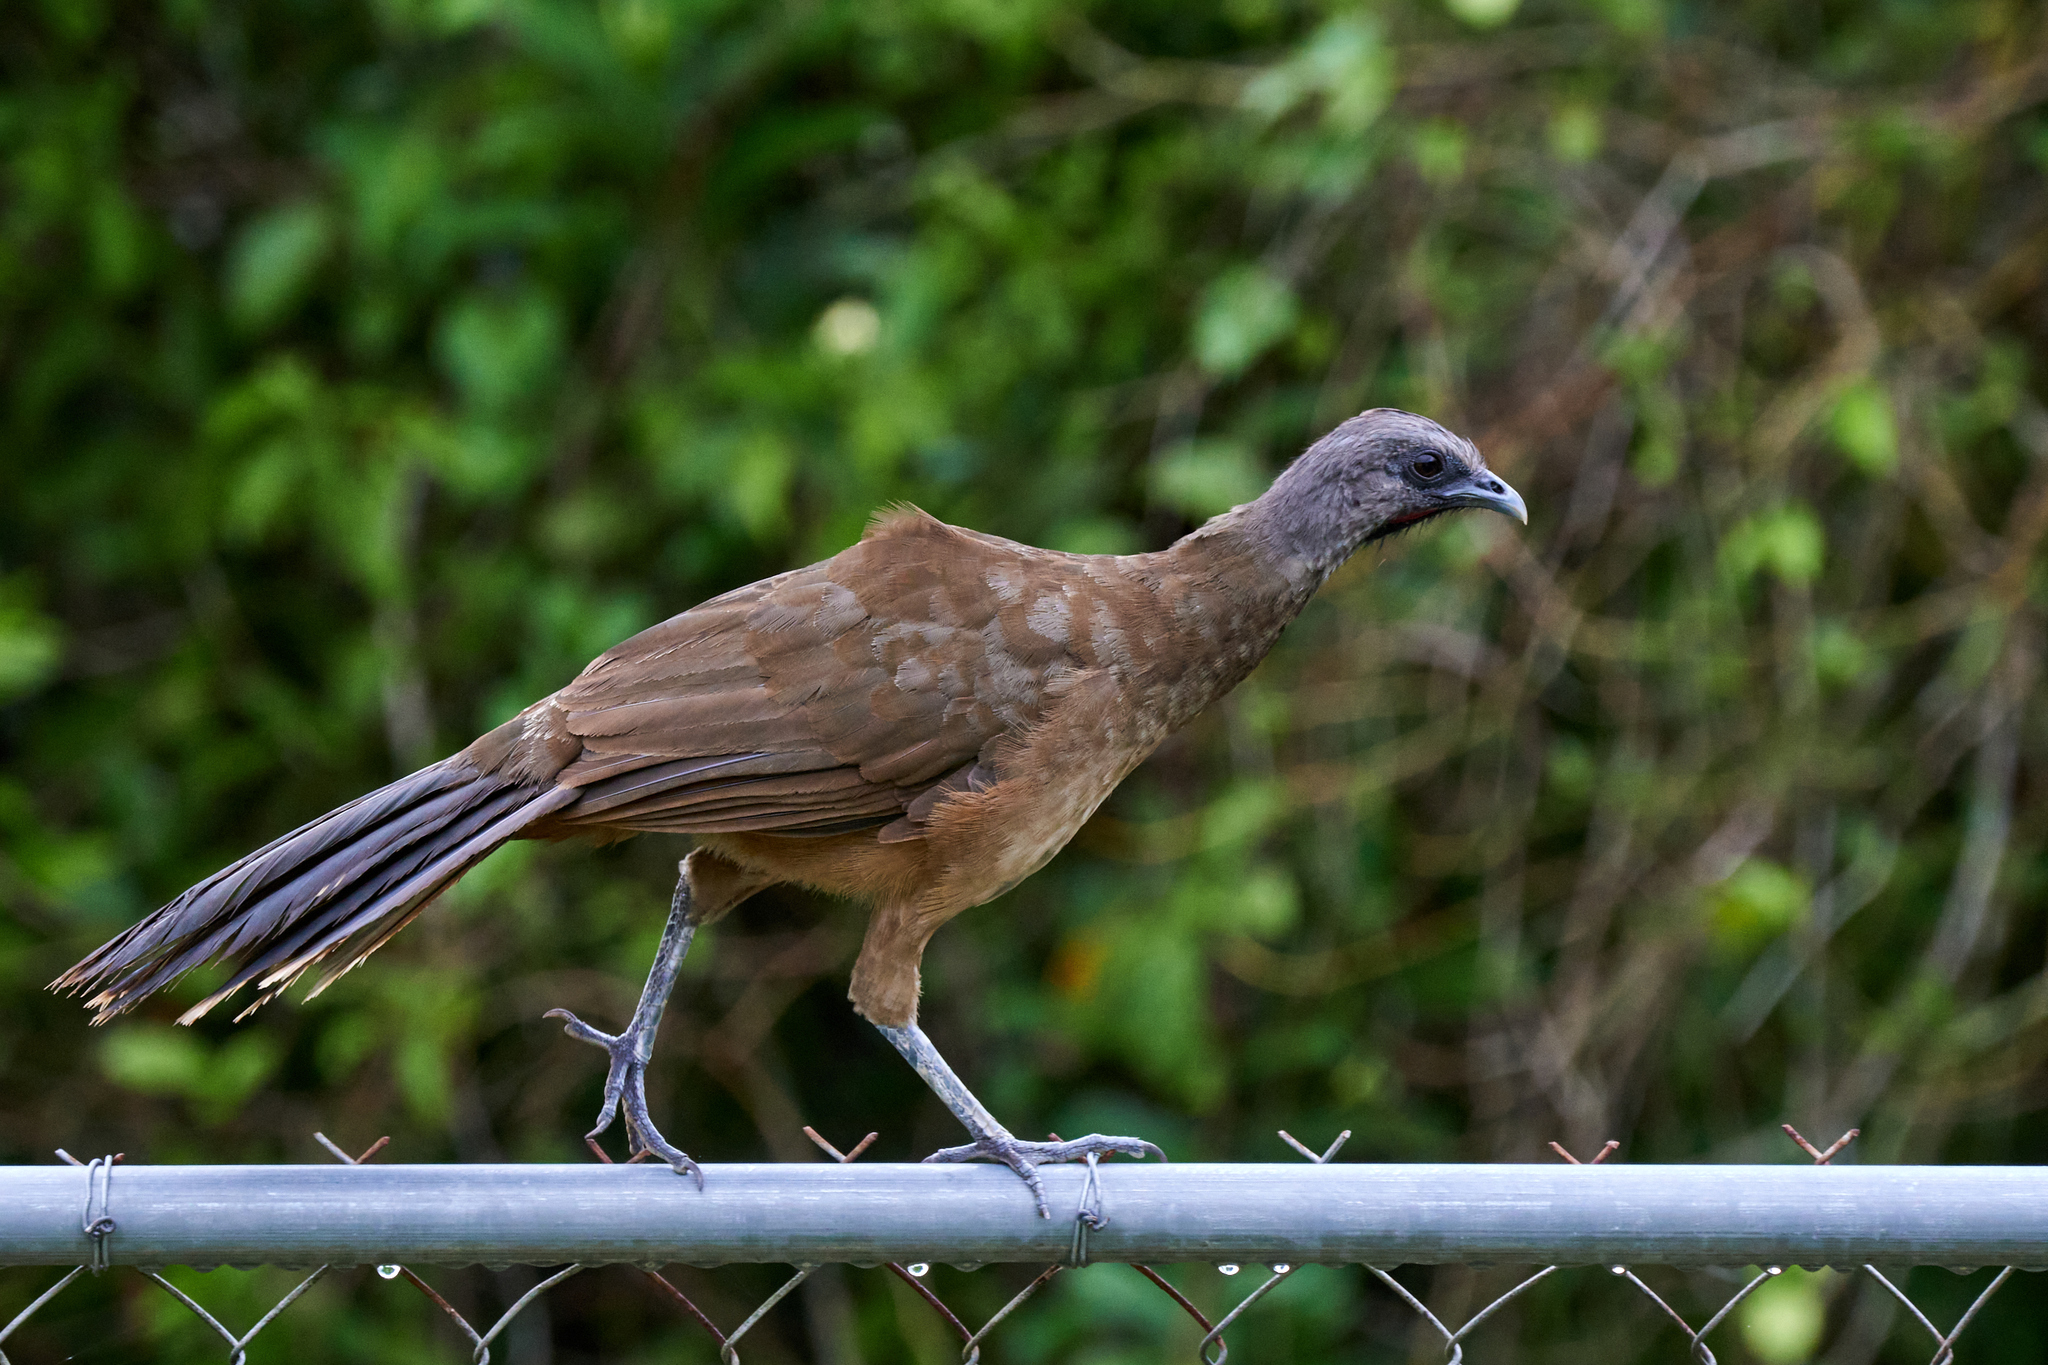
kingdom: Animalia
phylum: Chordata
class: Aves
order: Galliformes
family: Cracidae
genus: Ortalis
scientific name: Ortalis vetula
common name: Plain chachalaca
